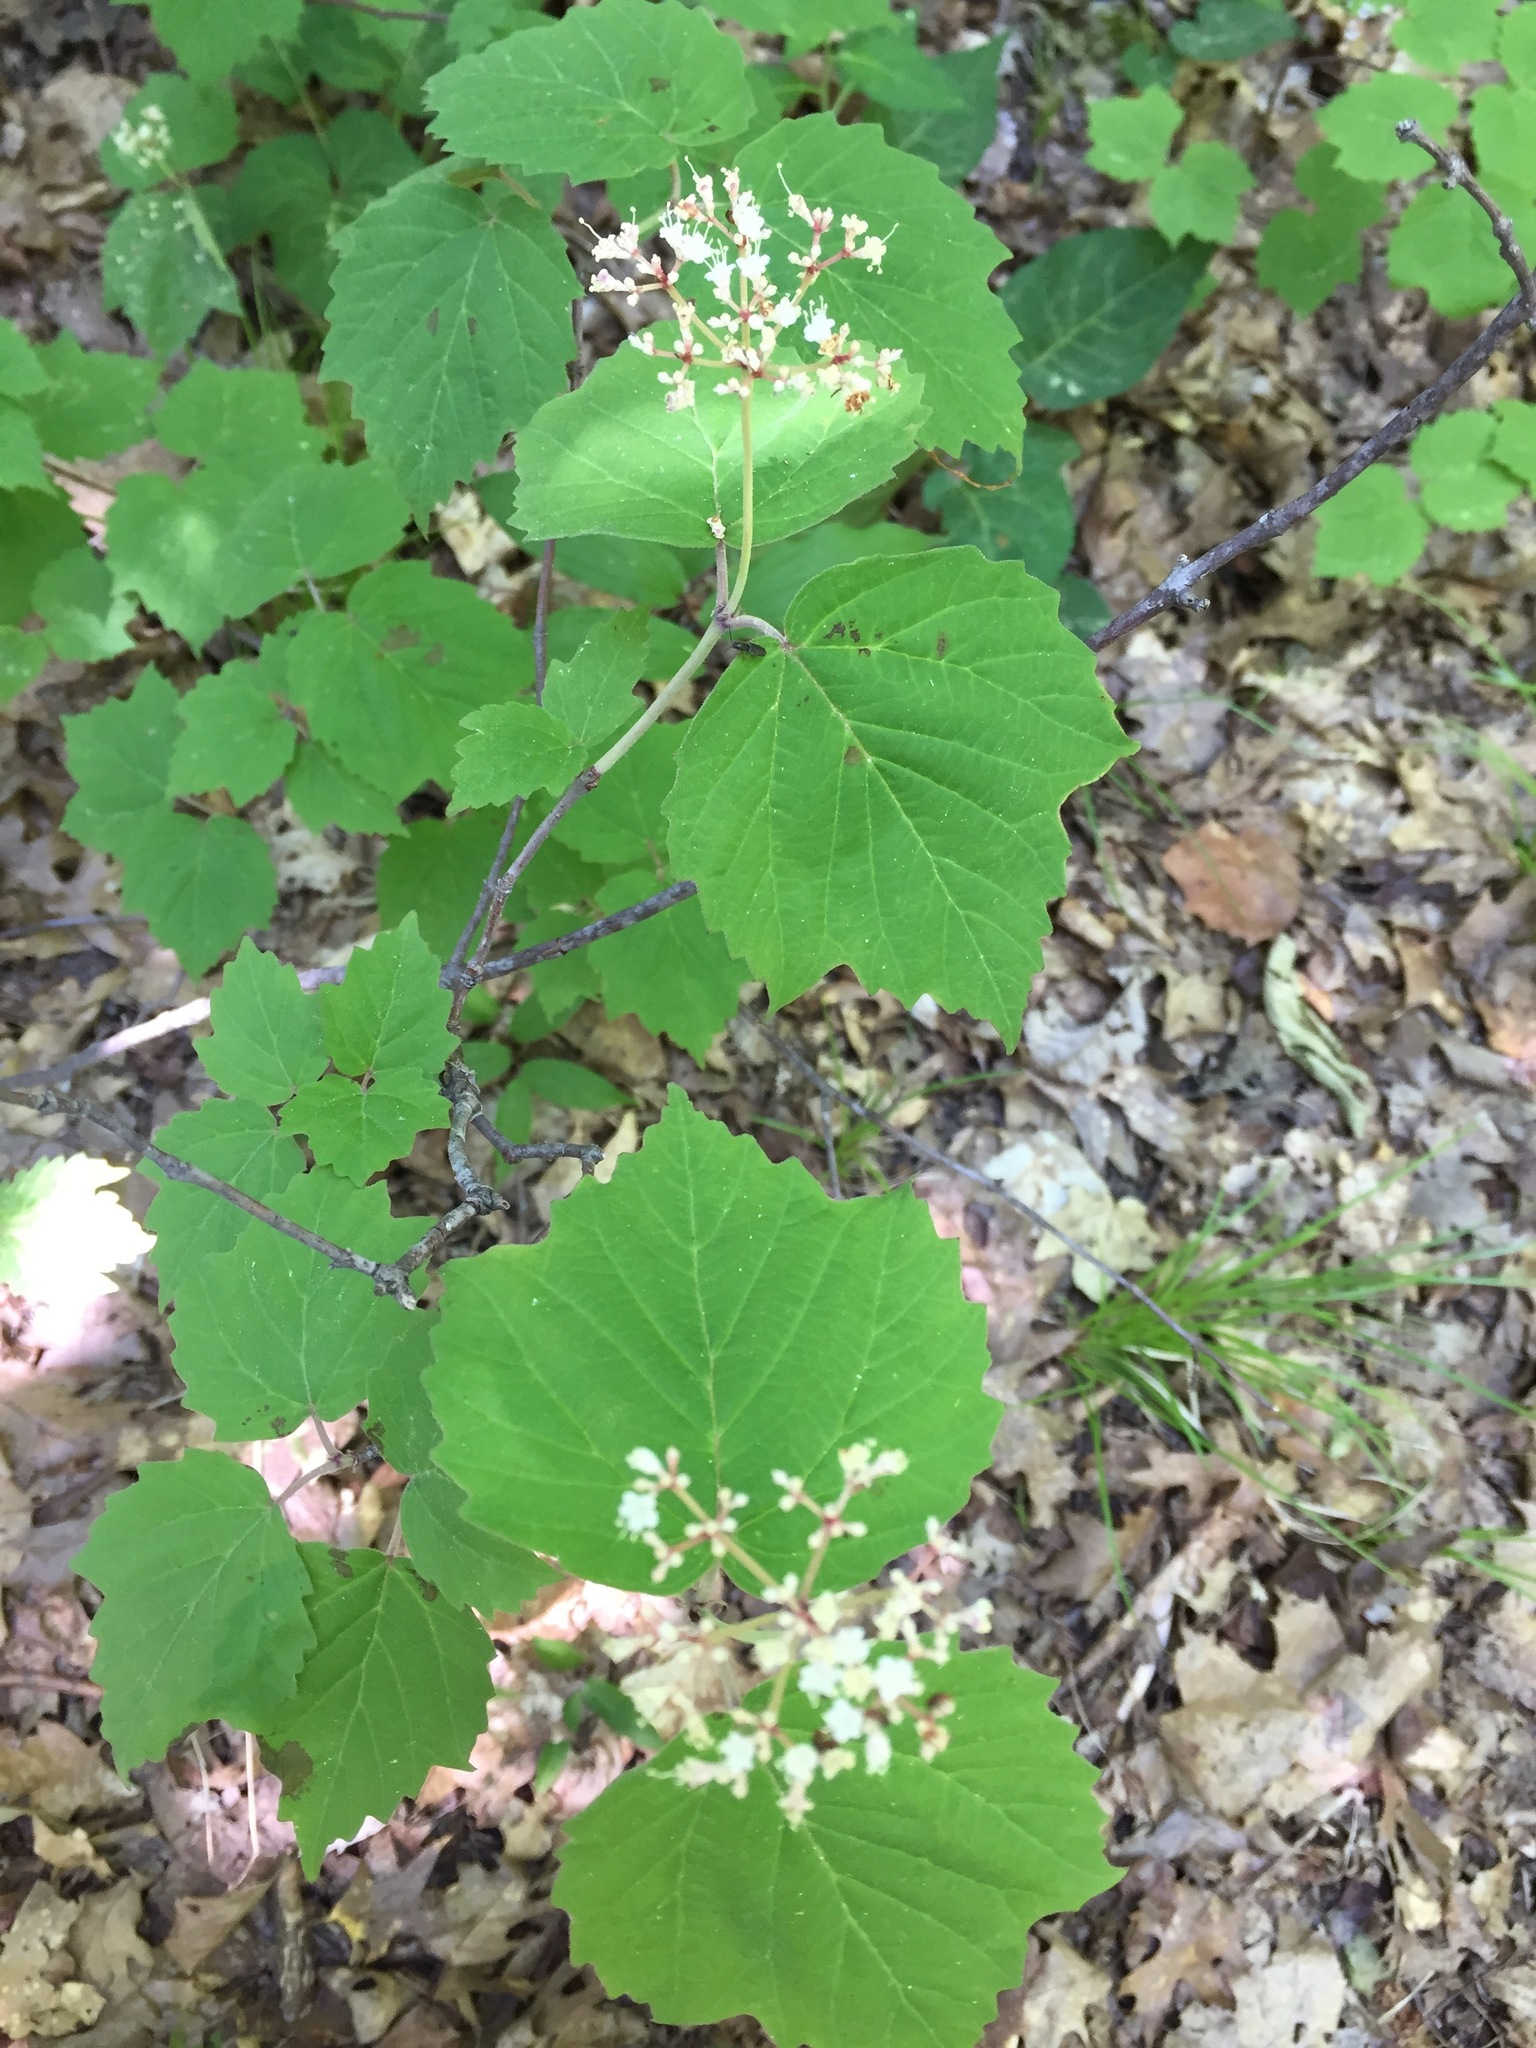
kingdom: Plantae
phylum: Tracheophyta
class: Magnoliopsida
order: Dipsacales
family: Viburnaceae
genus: Viburnum
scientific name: Viburnum acerifolium
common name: Dockmackie
